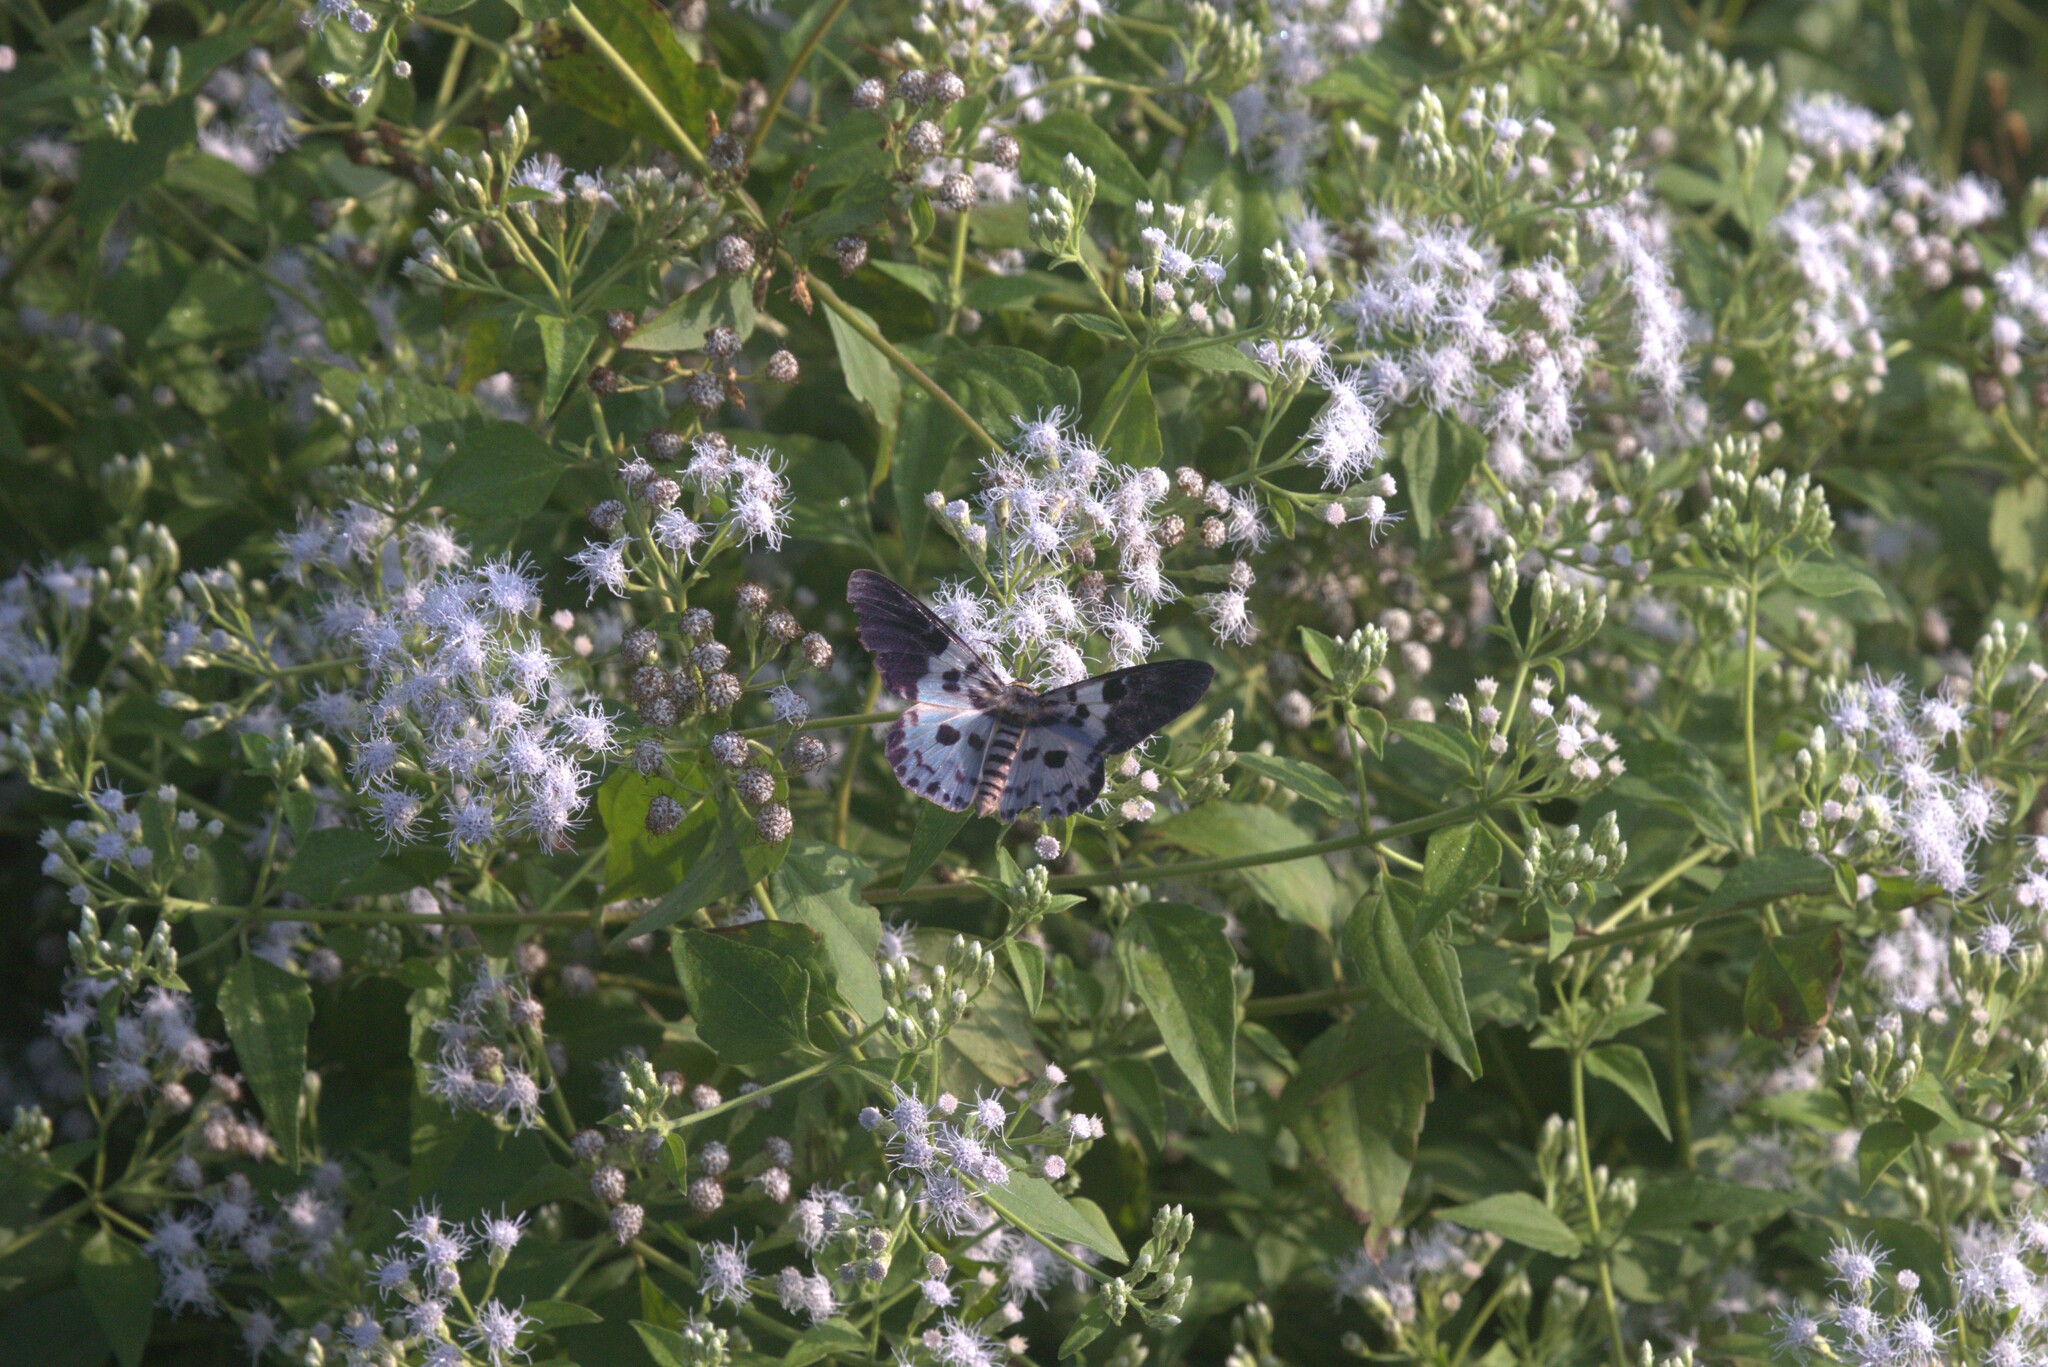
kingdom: Animalia
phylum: Arthropoda
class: Insecta
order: Lepidoptera
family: Geometridae
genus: Dysphania
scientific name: Dysphania percota
